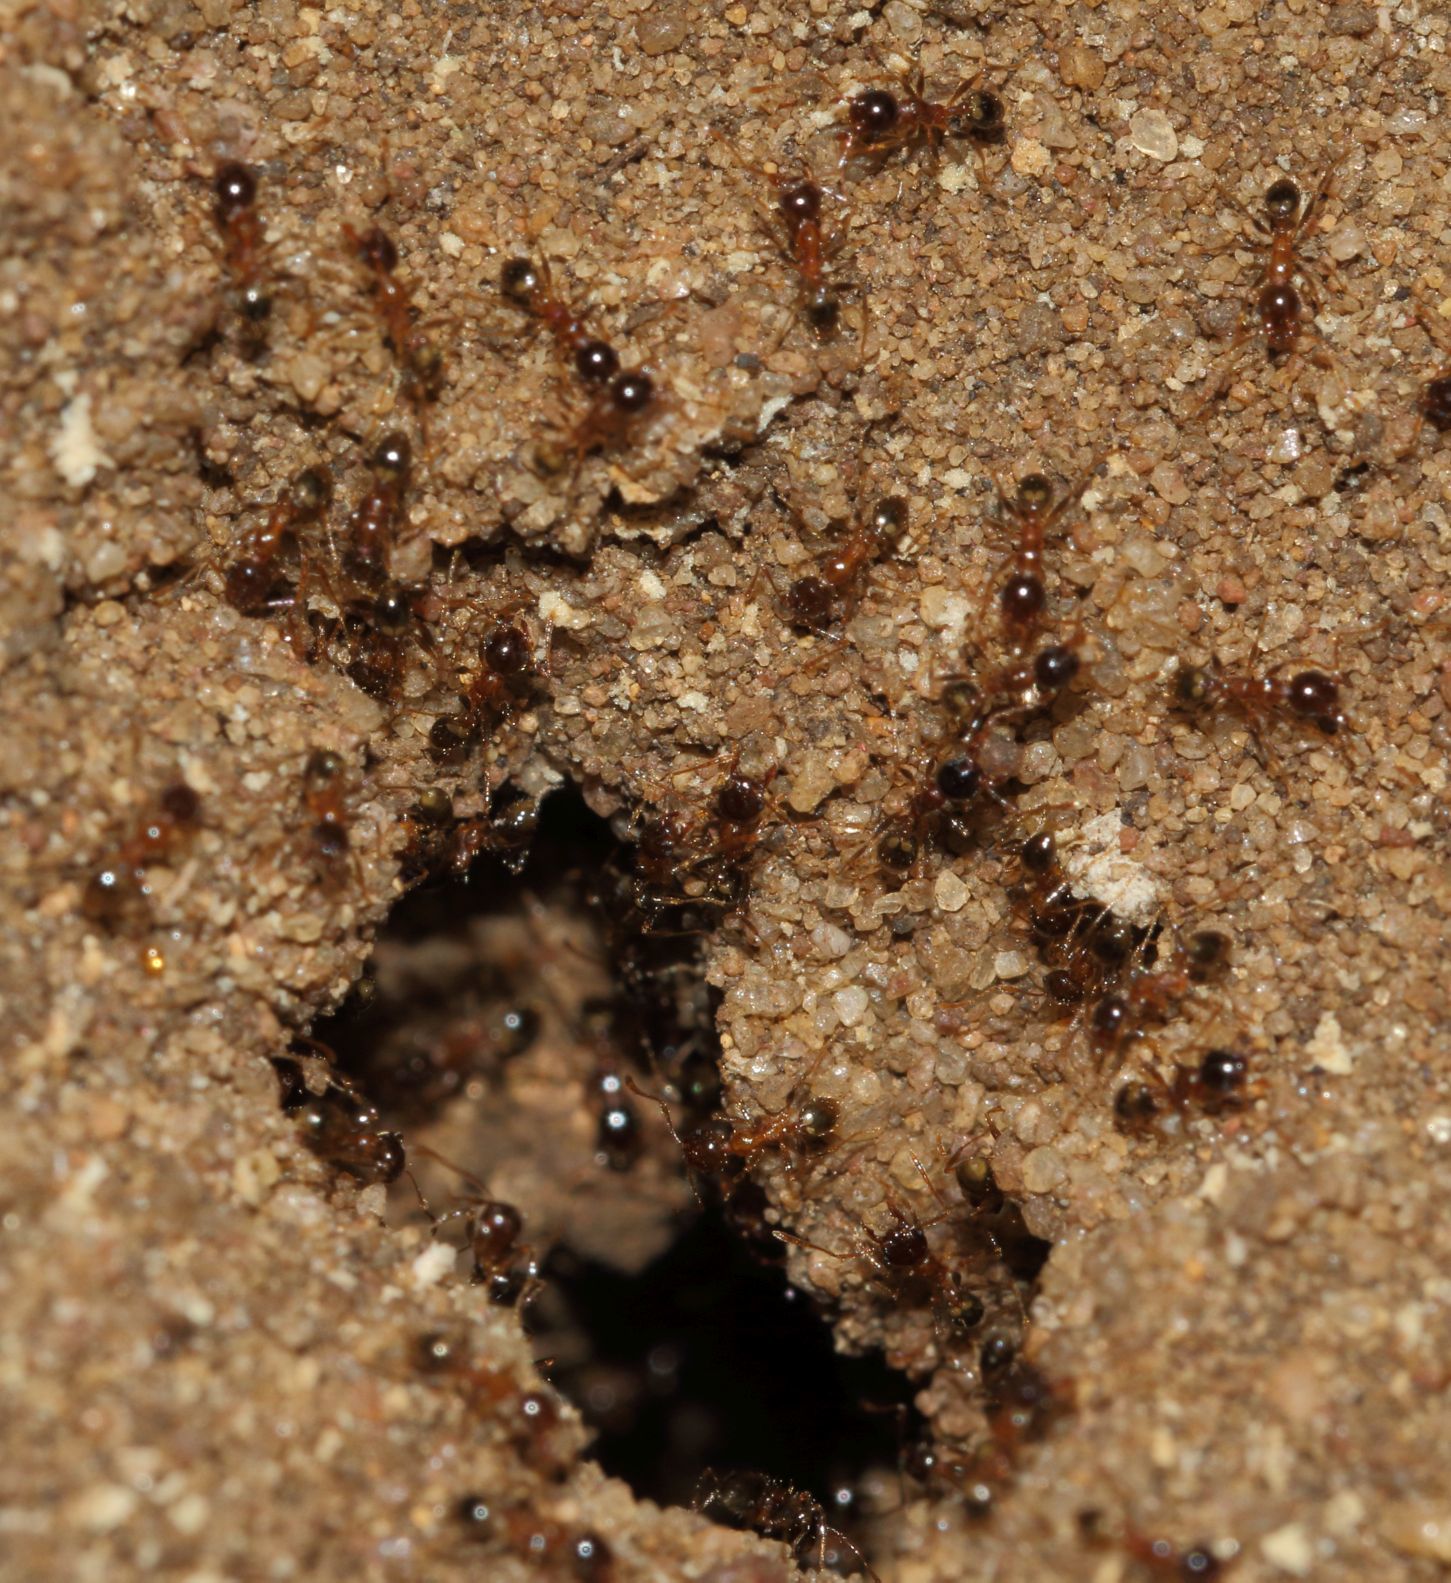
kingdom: Animalia
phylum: Arthropoda
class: Insecta
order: Hymenoptera
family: Formicidae
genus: Pheidole
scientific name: Pheidole megacephala
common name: Bigheaded ant
